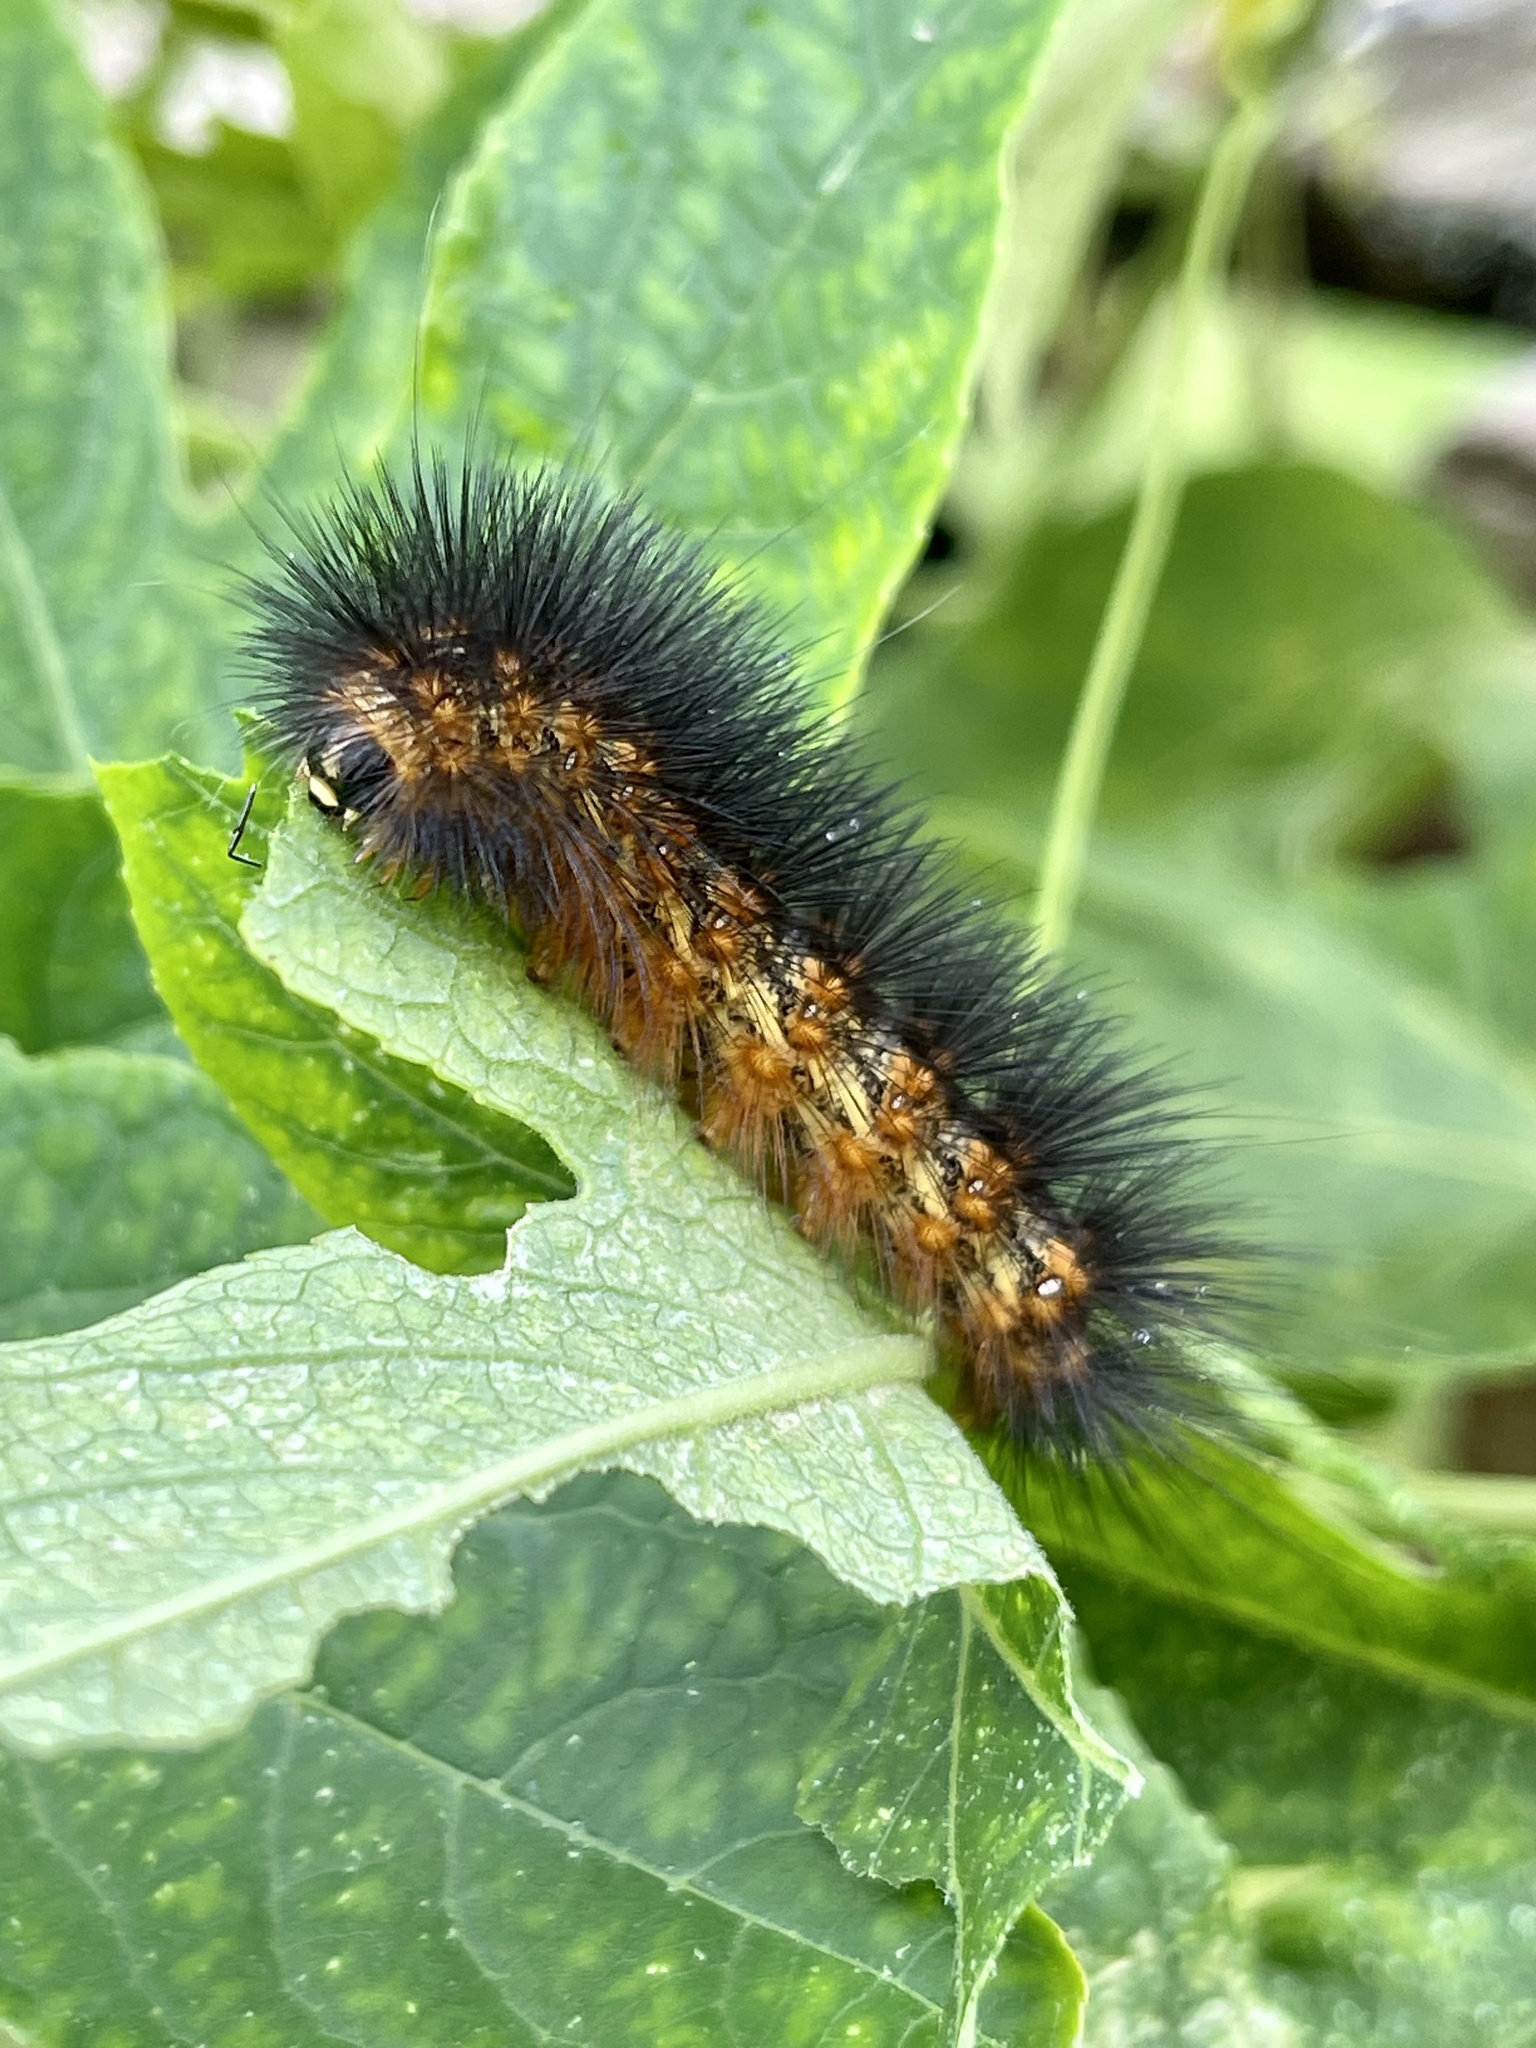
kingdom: Animalia
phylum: Arthropoda
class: Insecta
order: Lepidoptera
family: Erebidae
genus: Estigmene
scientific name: Estigmene acrea
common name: Salt marsh moth
